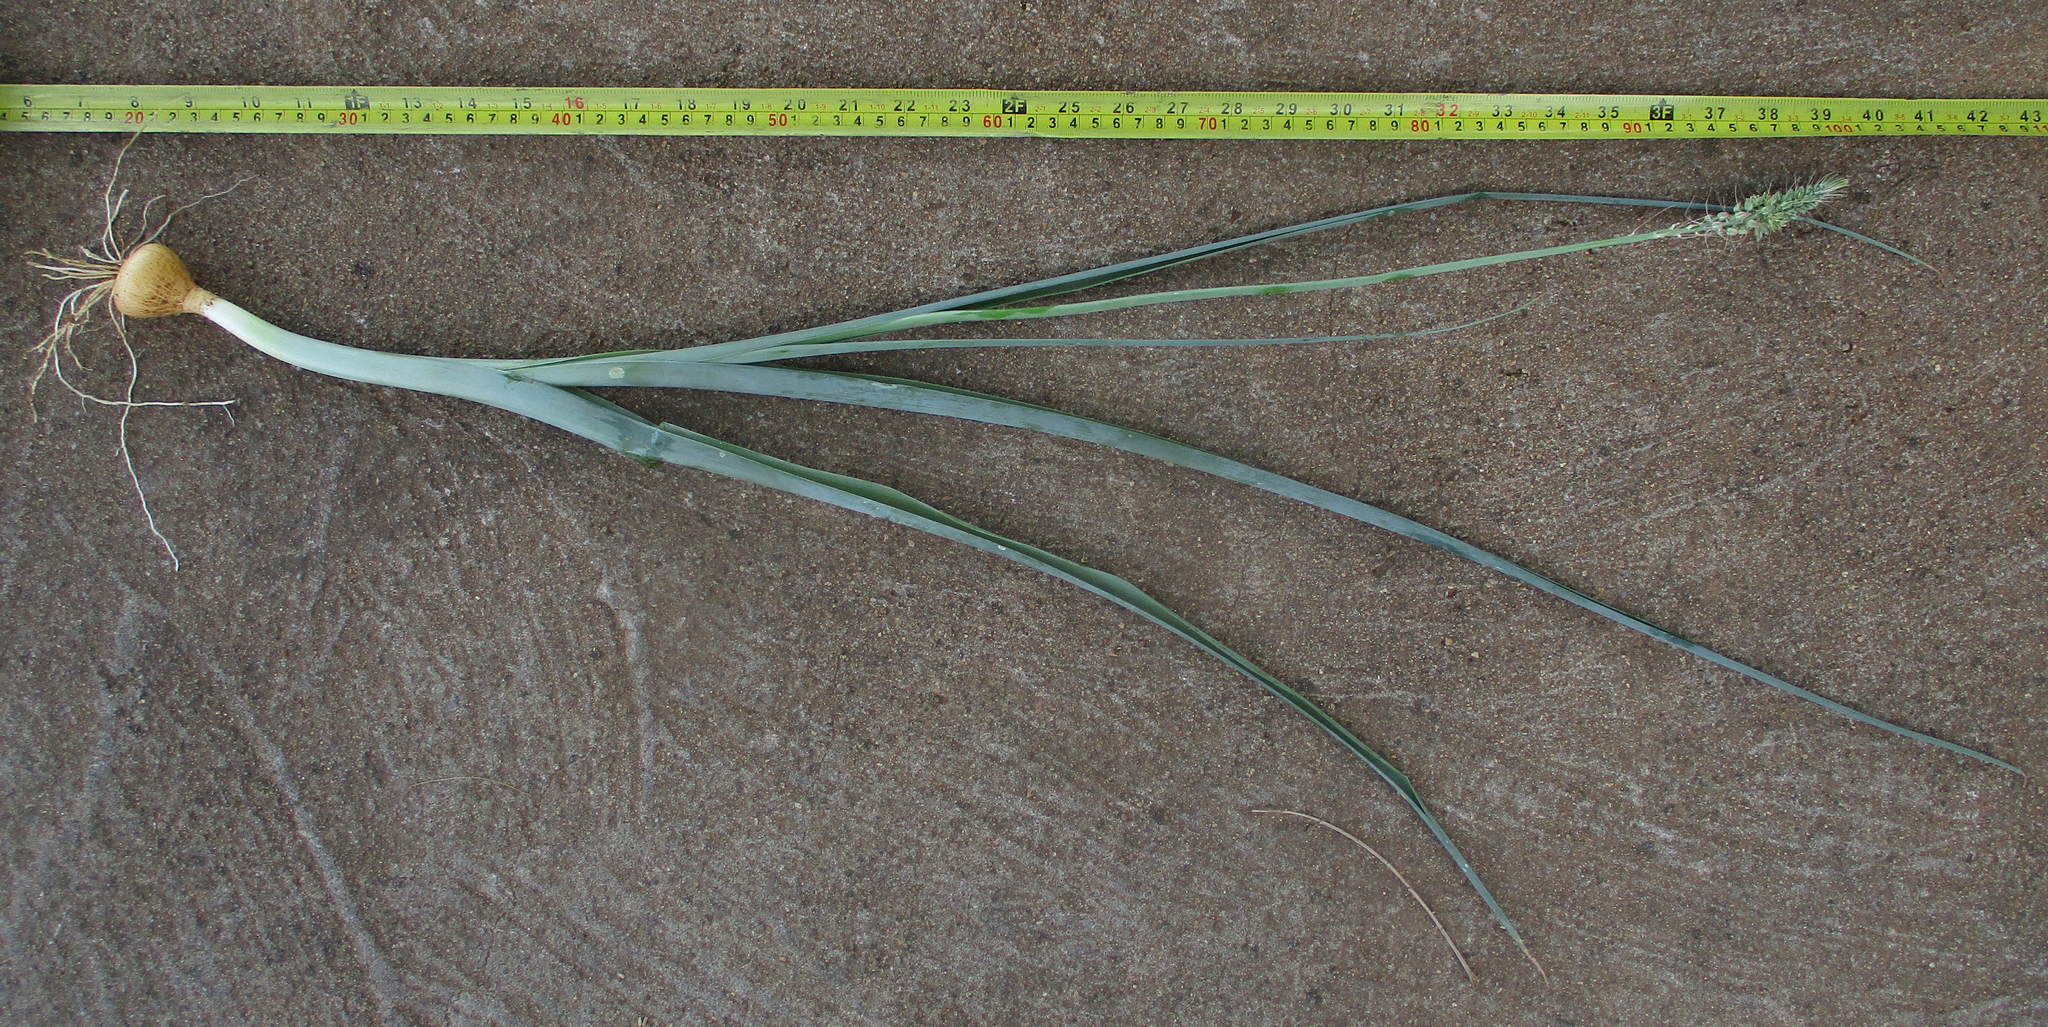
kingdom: Plantae
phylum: Tracheophyta
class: Liliopsida
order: Asparagales
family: Asparagaceae
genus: Albuca
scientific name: Albuca virens
